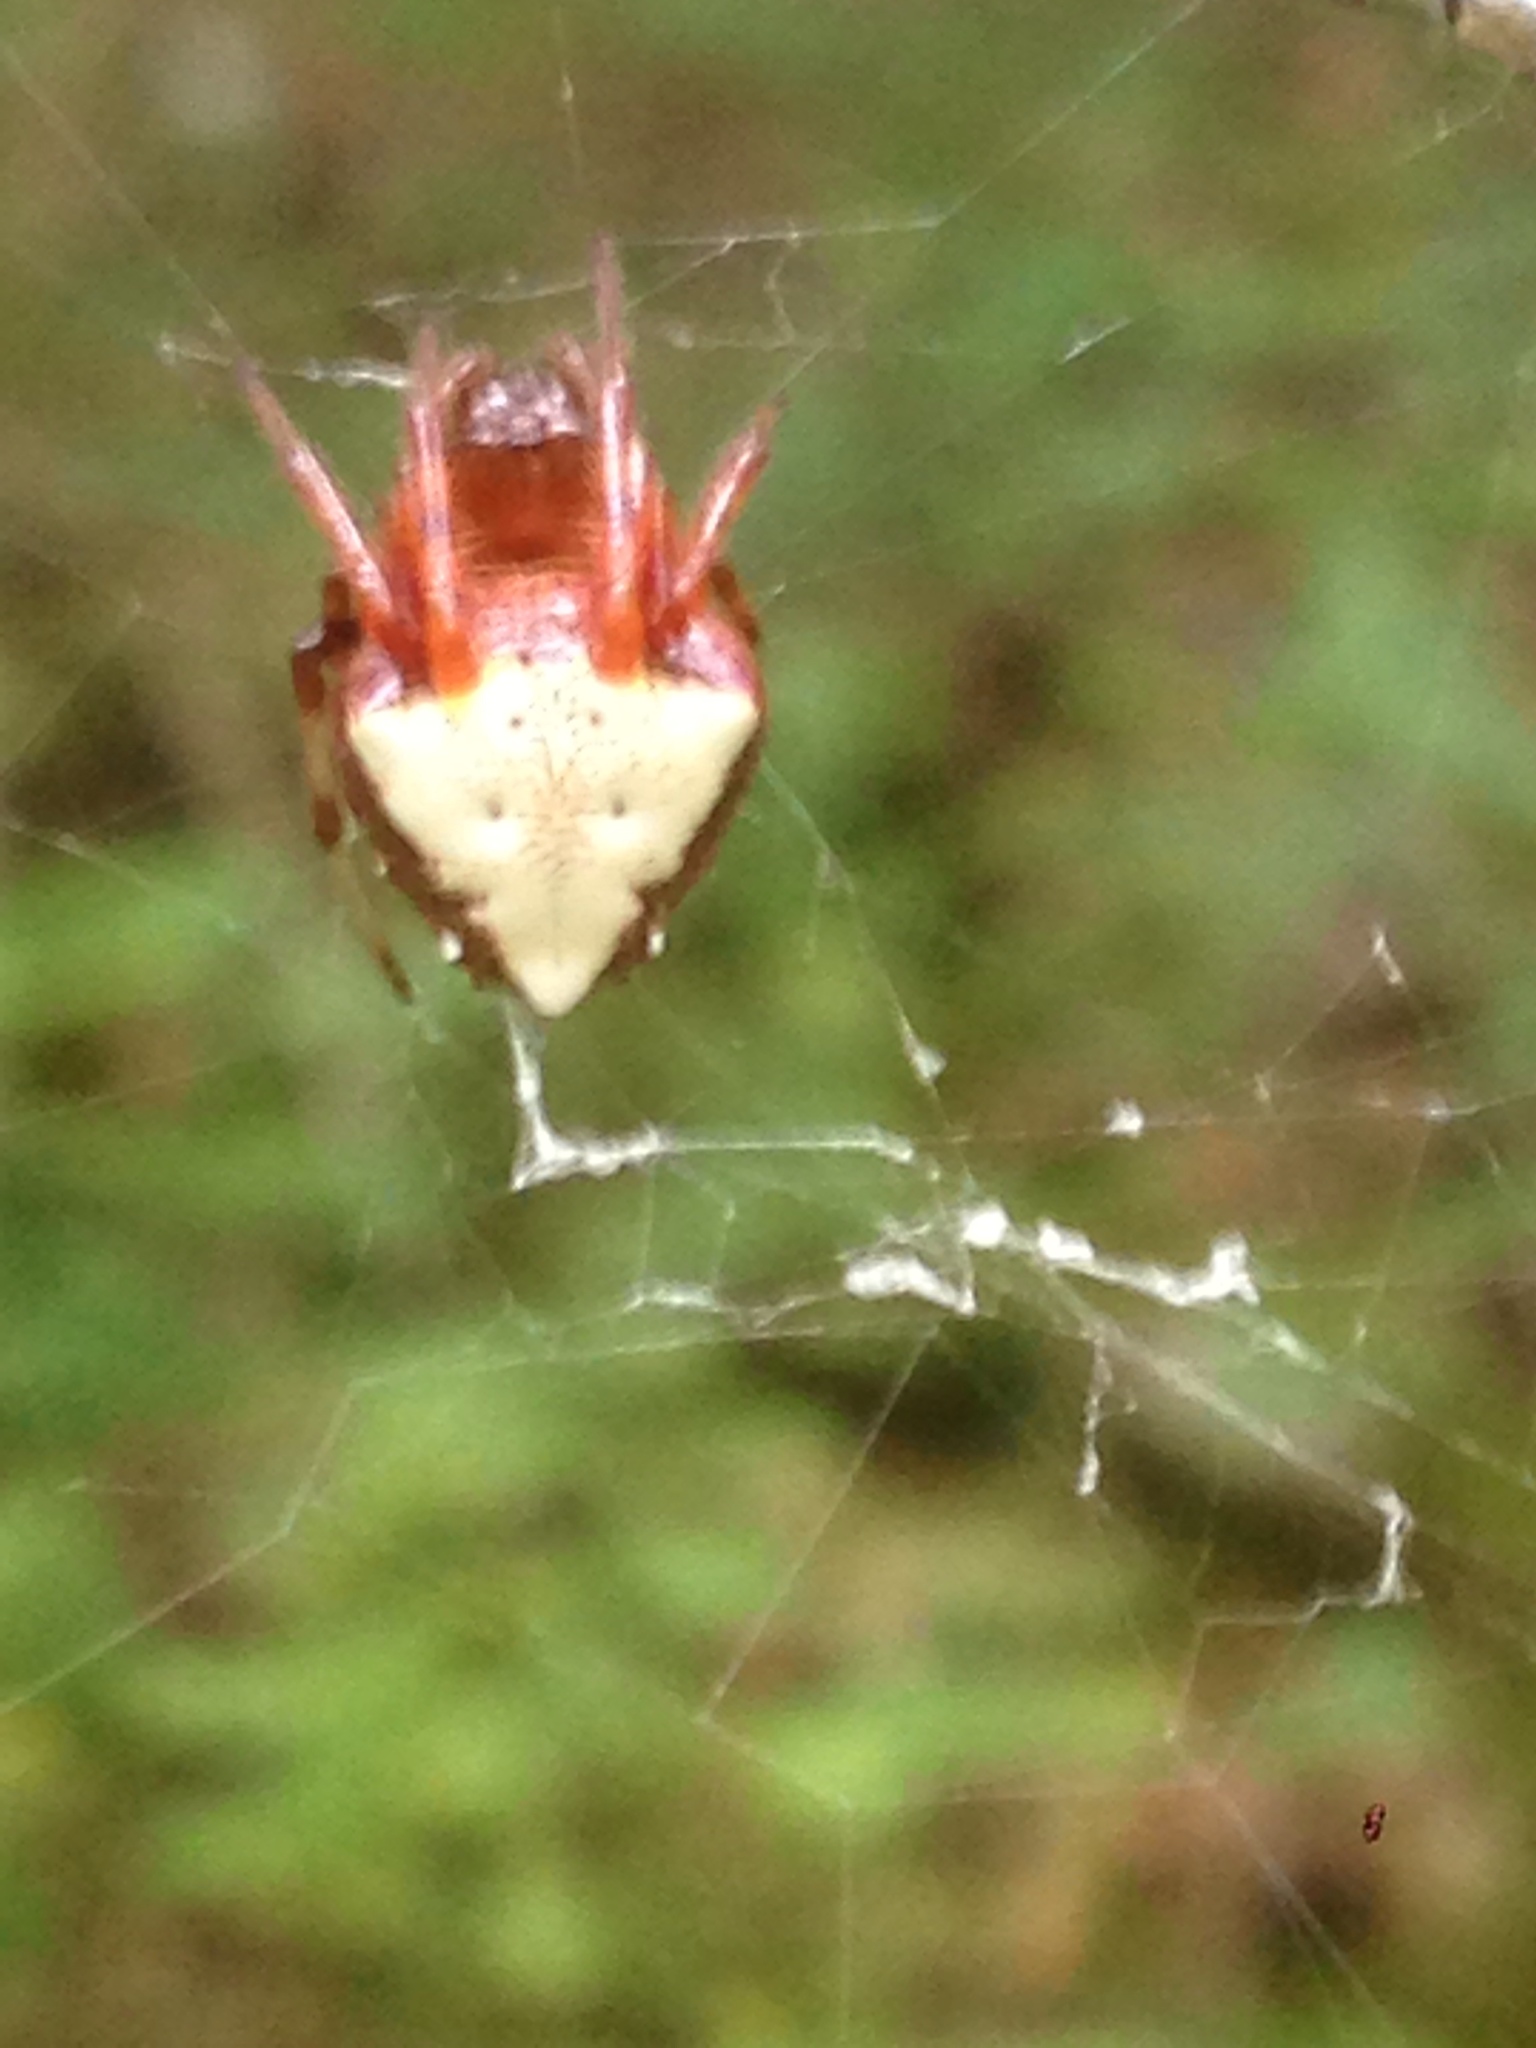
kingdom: Animalia
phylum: Arthropoda
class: Arachnida
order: Araneae
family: Araneidae
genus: Verrucosa
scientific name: Verrucosa arenata
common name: Orb weavers
